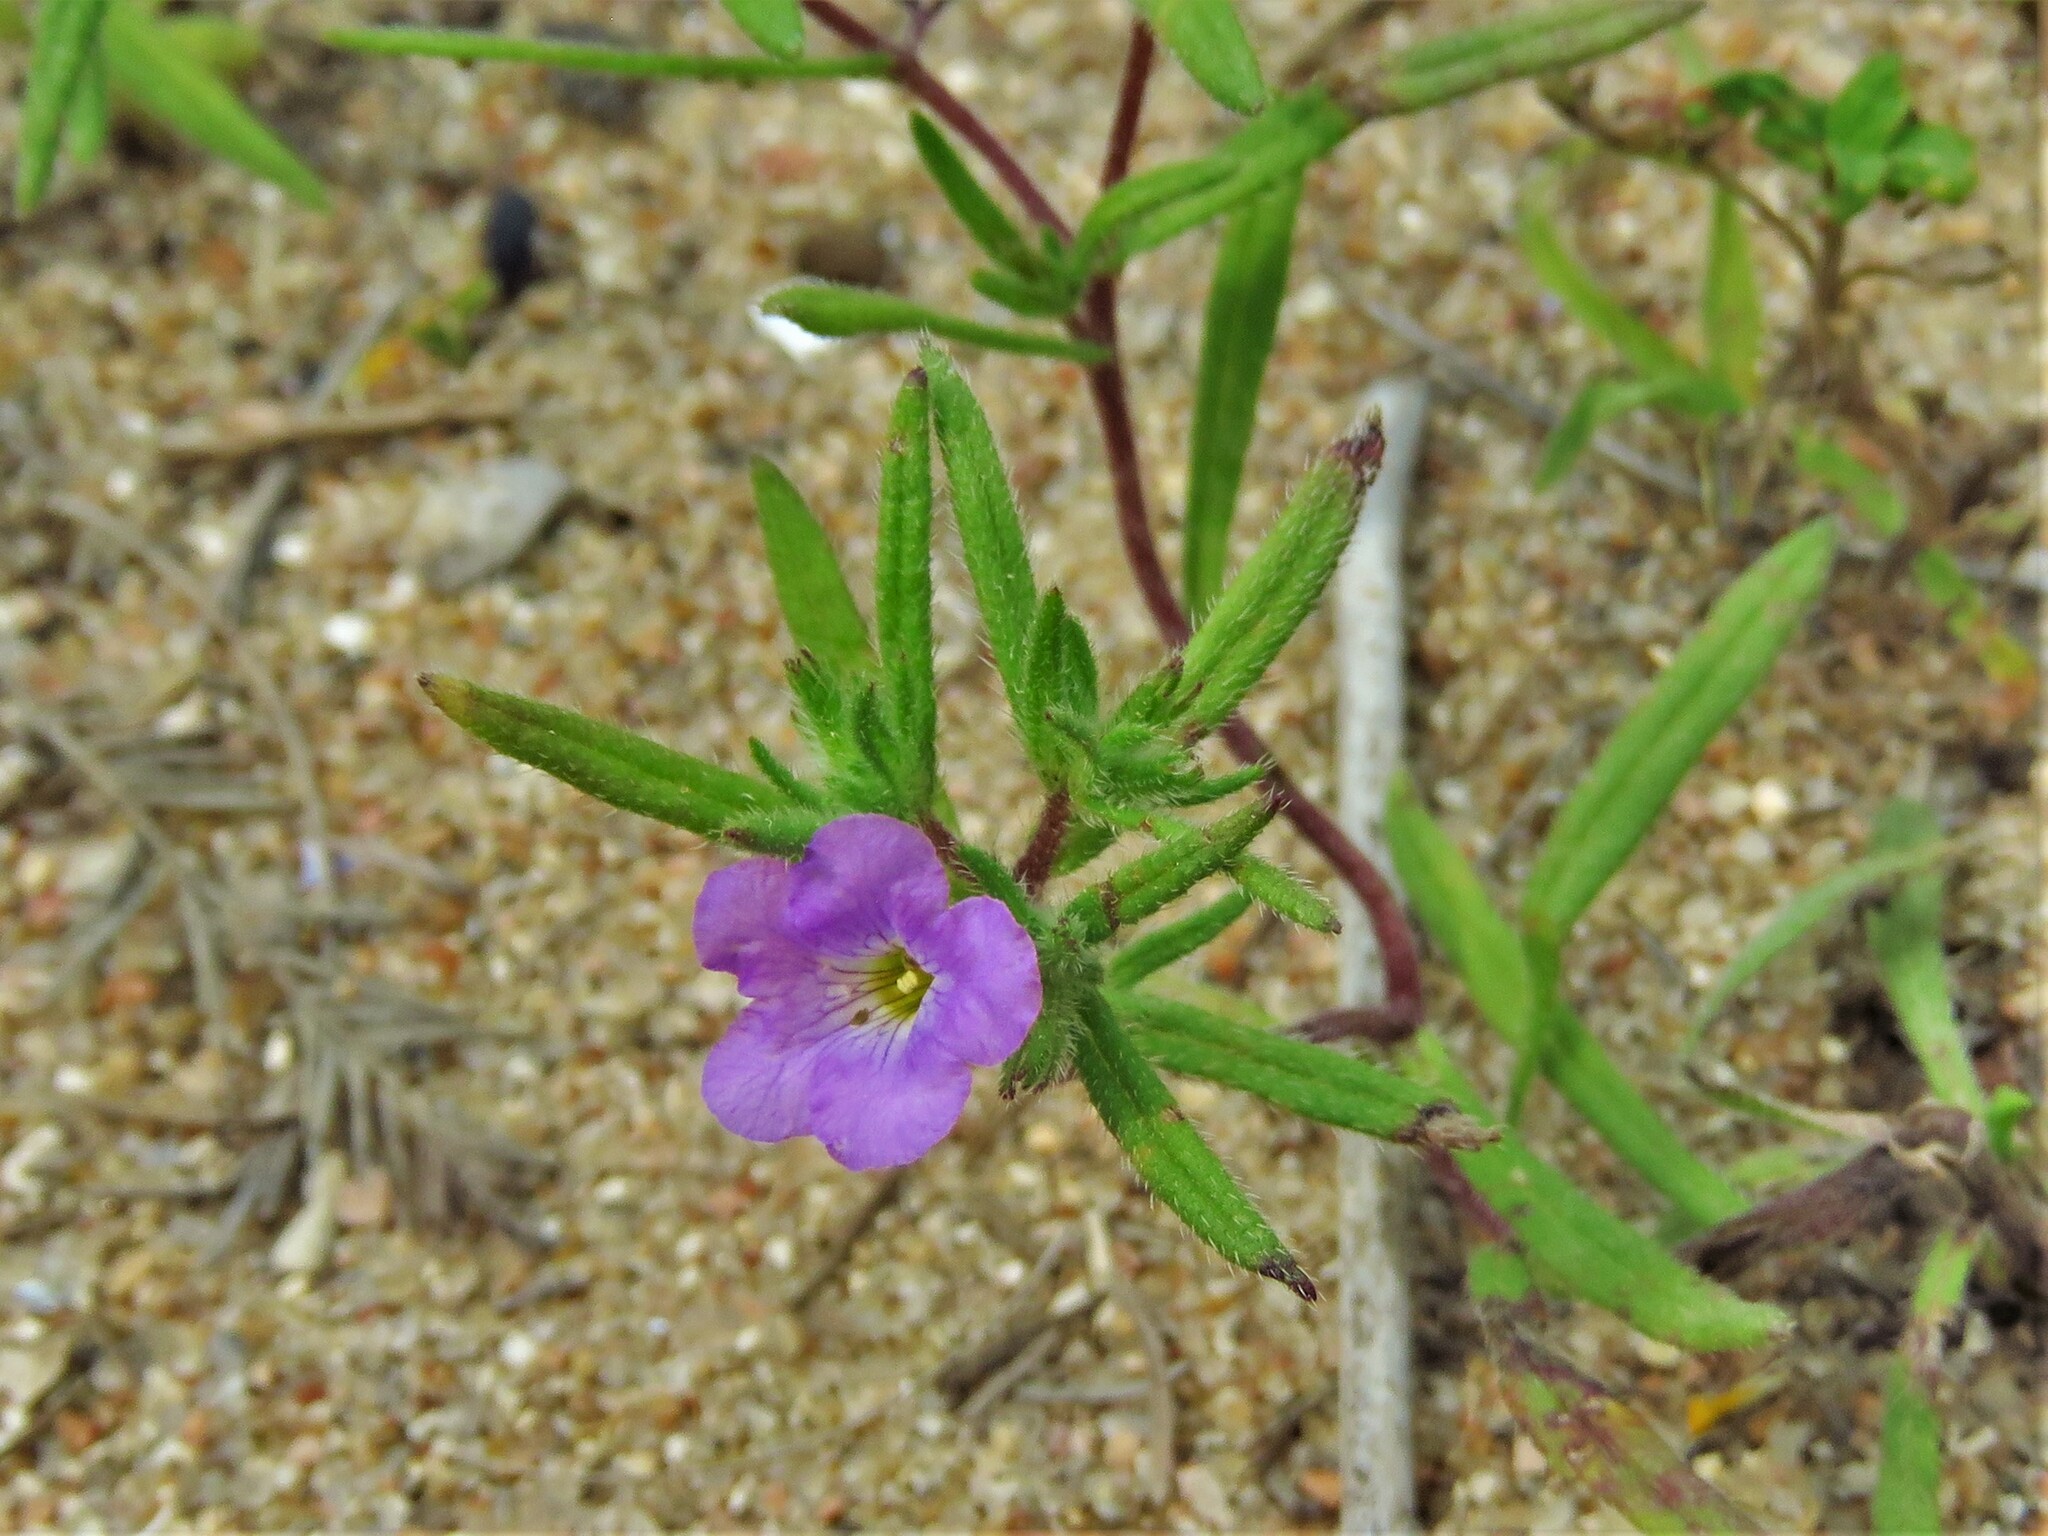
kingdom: Plantae
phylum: Tracheophyta
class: Magnoliopsida
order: Boraginales
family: Namaceae
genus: Nama
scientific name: Nama hispida
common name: Bristly nama
